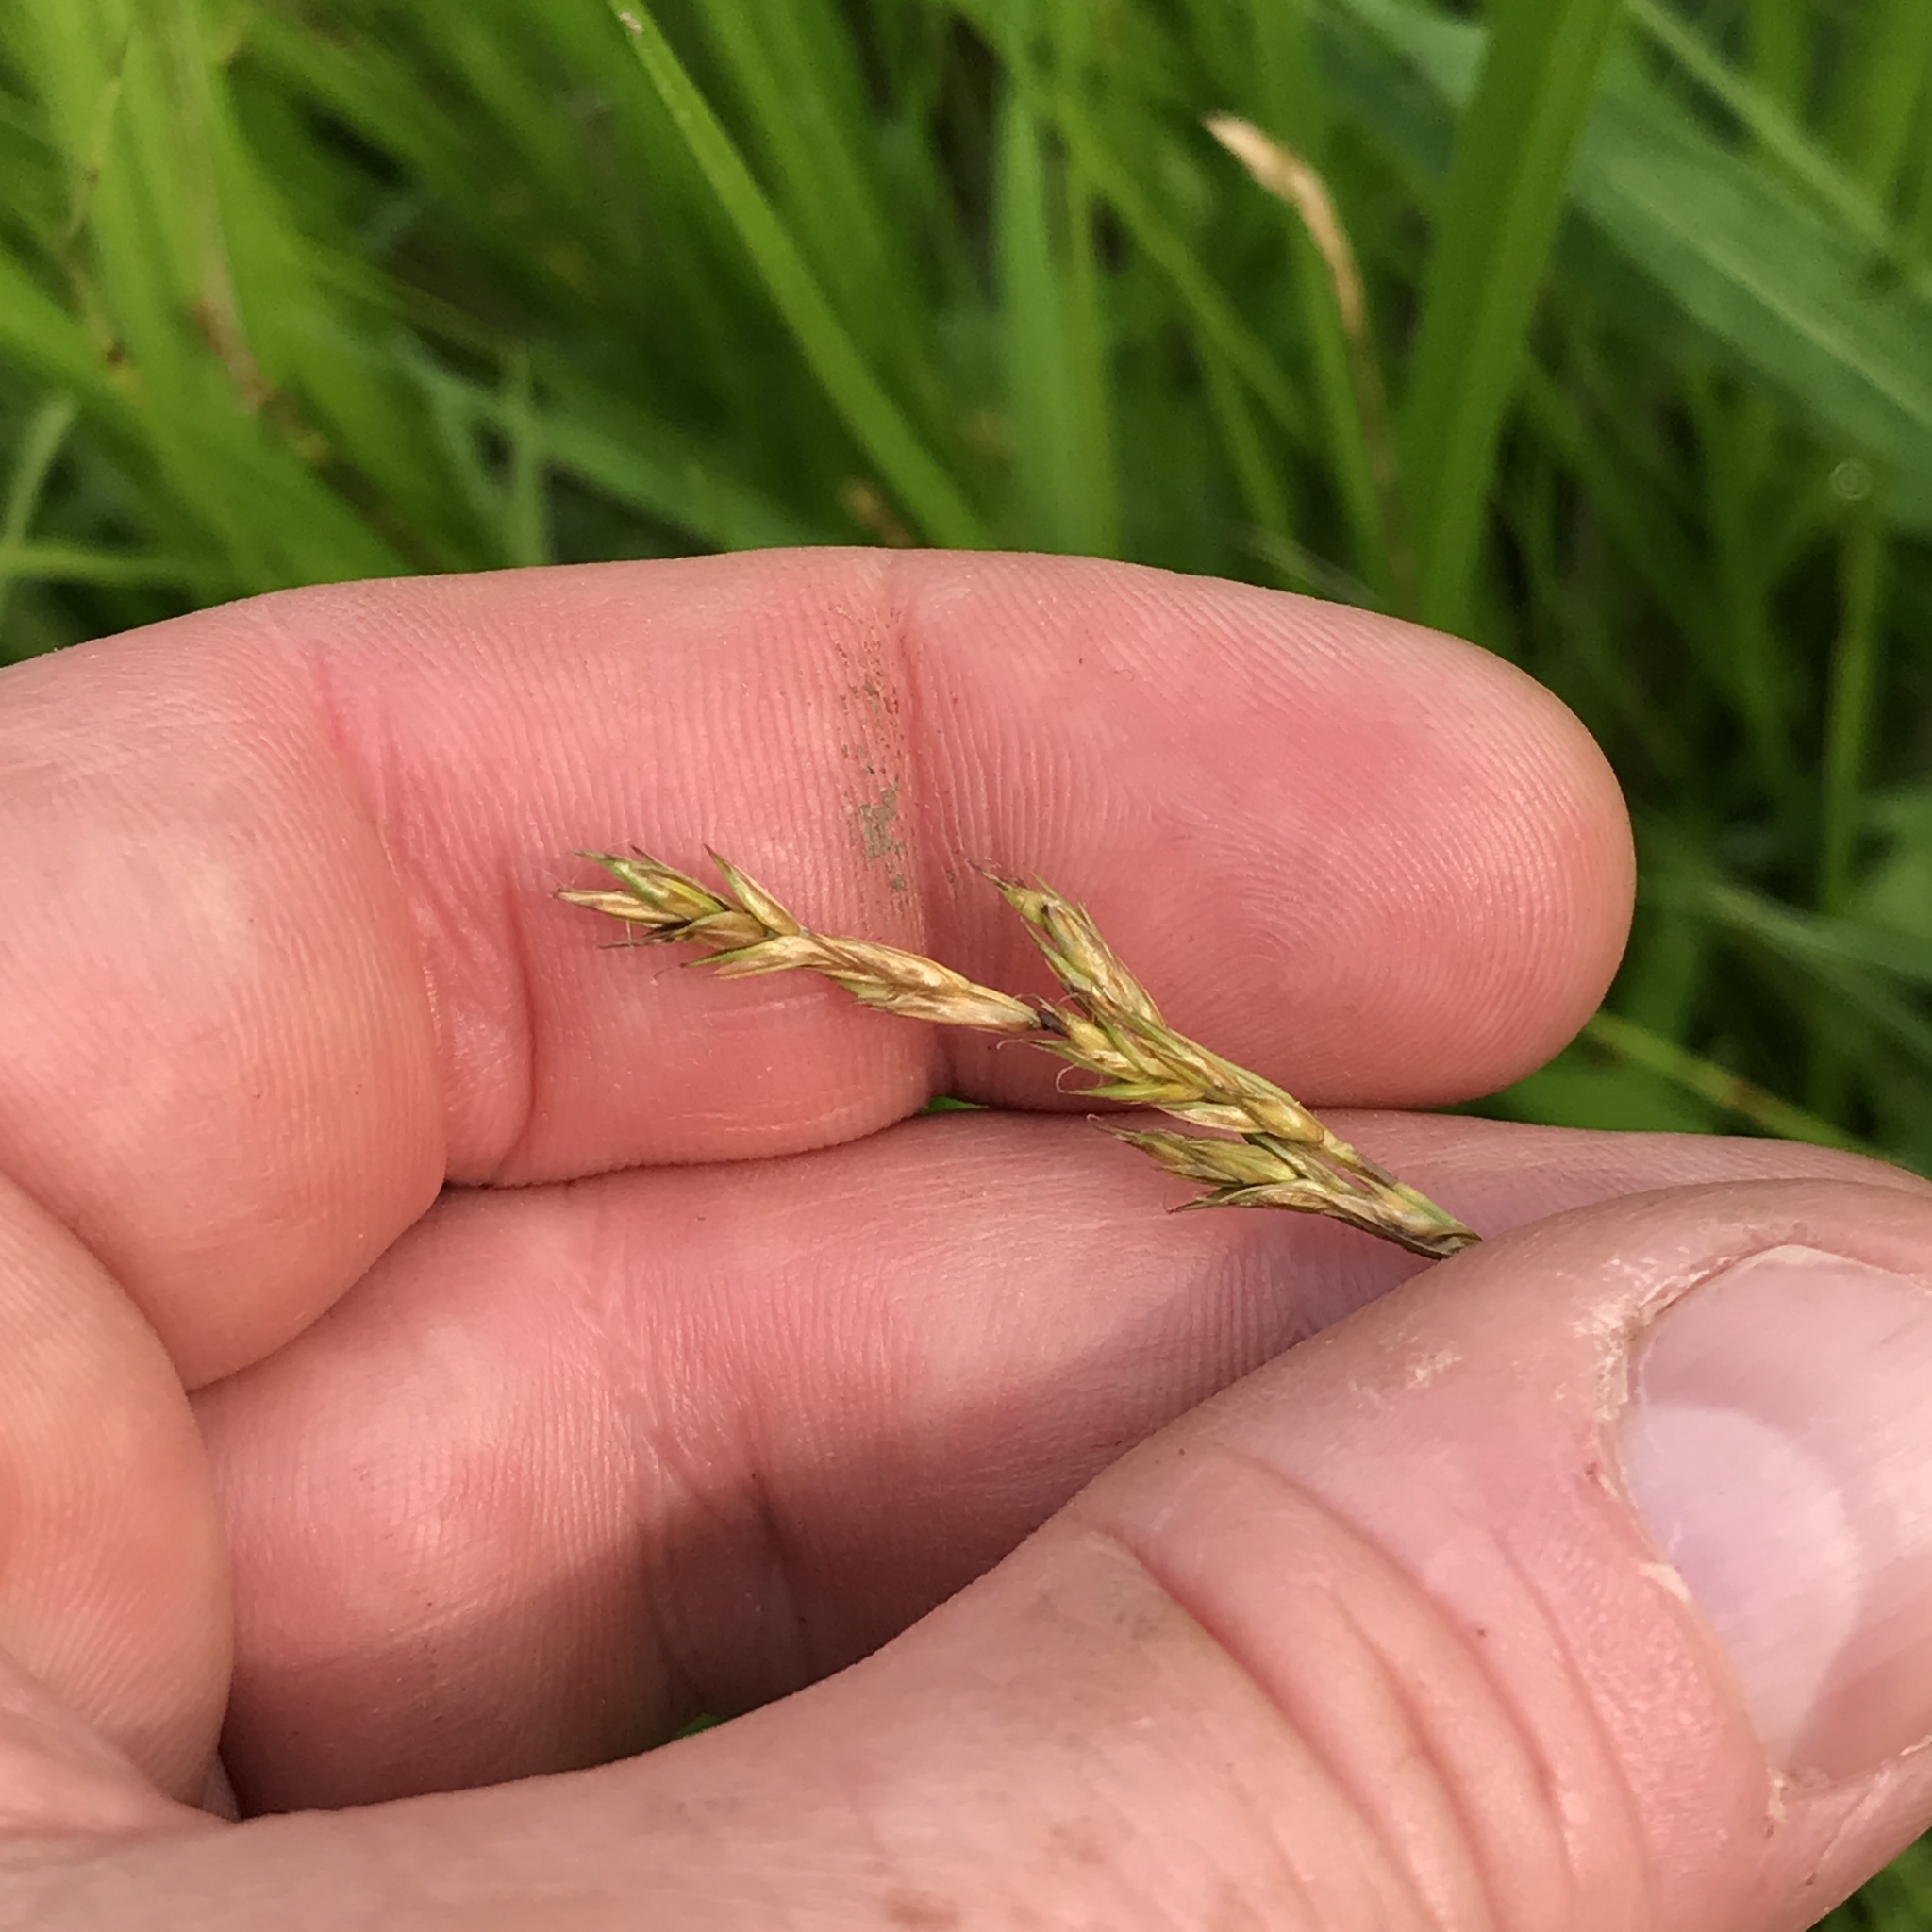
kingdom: Plantae
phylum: Tracheophyta
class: Liliopsida
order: Poales
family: Cyperaceae
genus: Carex
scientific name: Carex bromoides
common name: Brome hummock sedge
